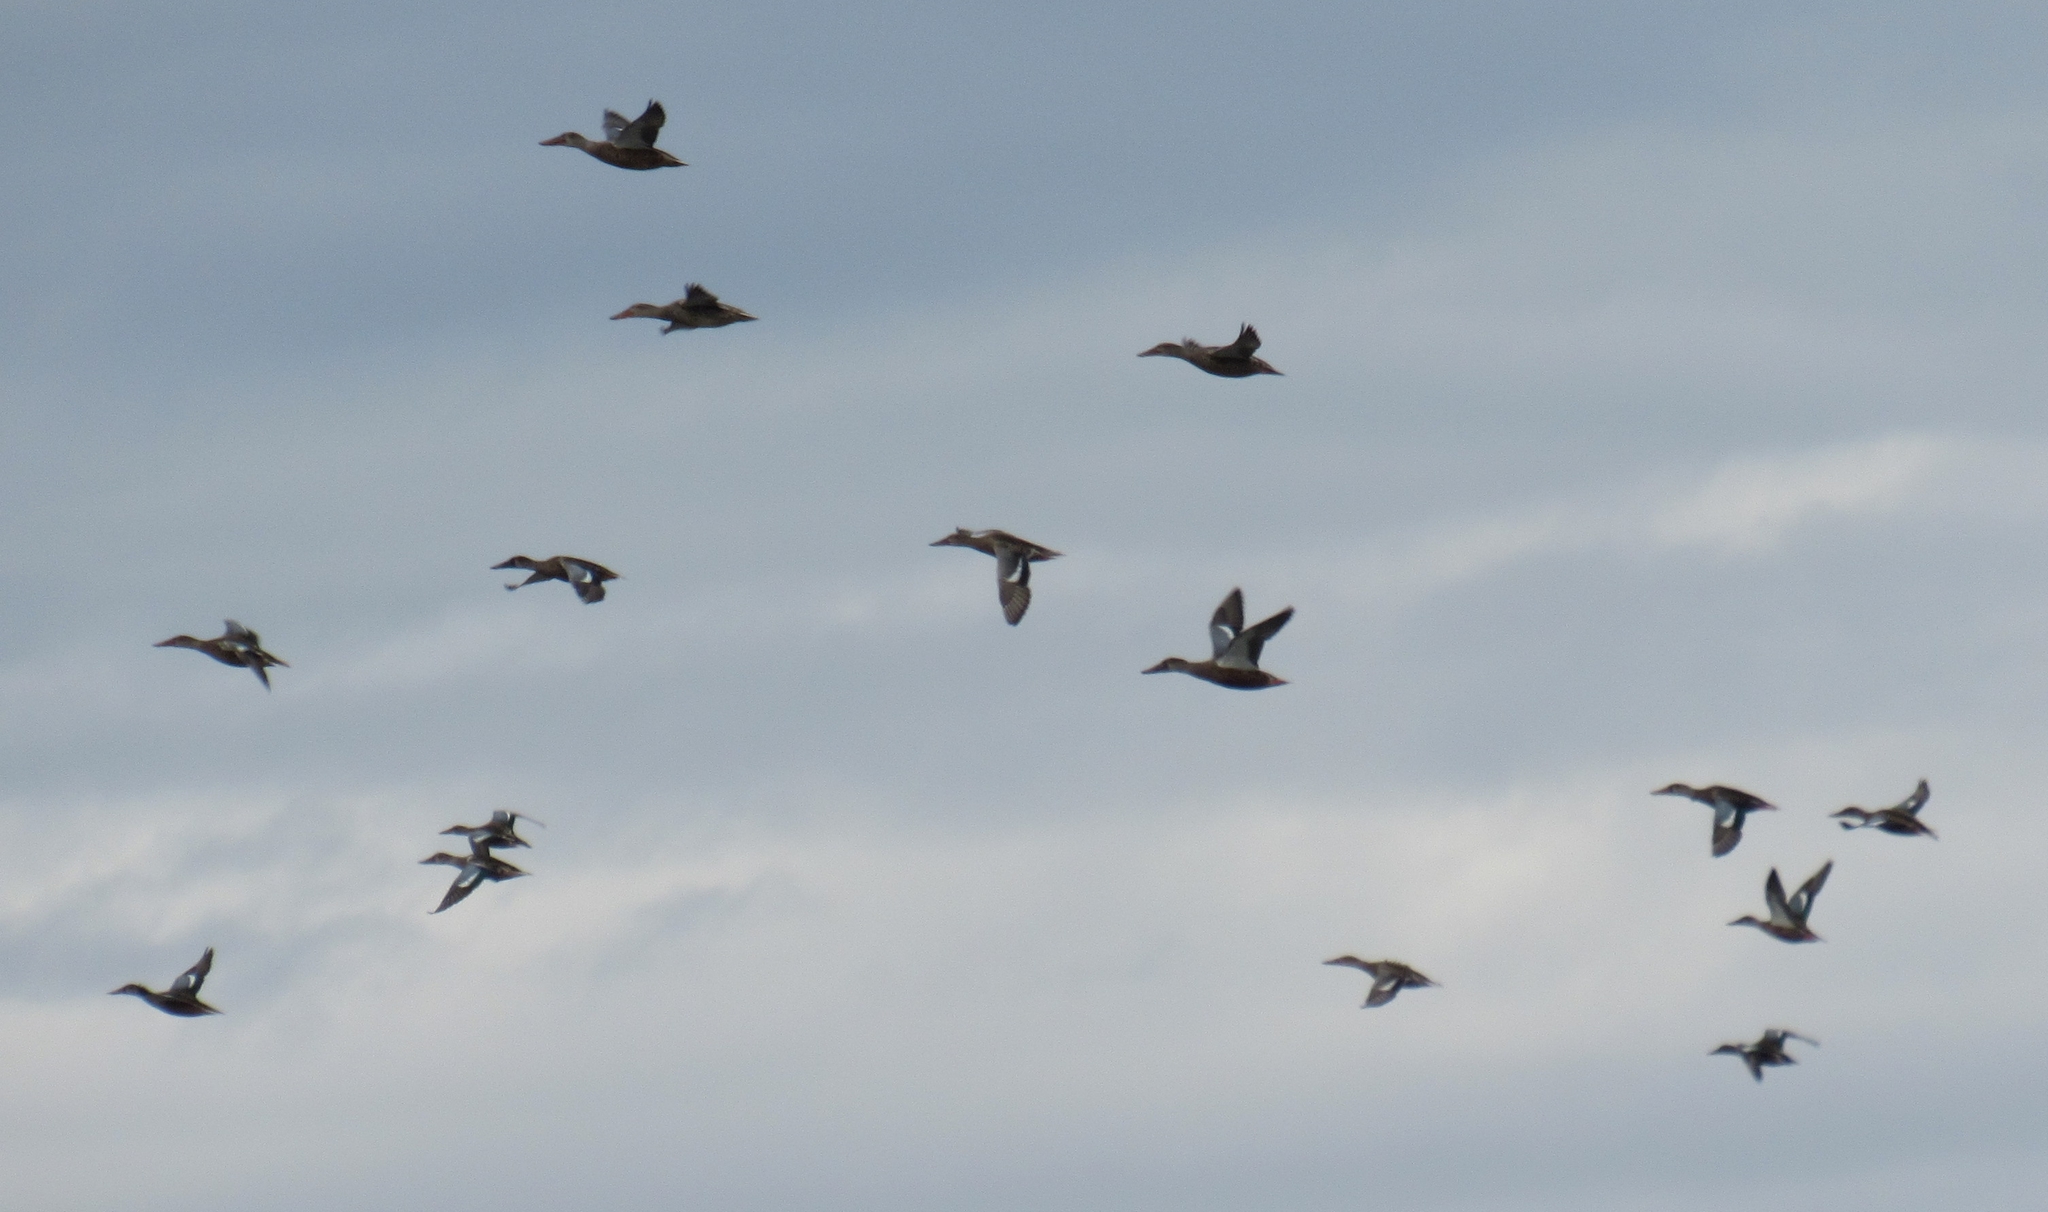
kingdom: Animalia
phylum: Chordata
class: Aves
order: Anseriformes
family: Anatidae
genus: Spatula
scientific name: Spatula clypeata
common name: Northern shoveler
